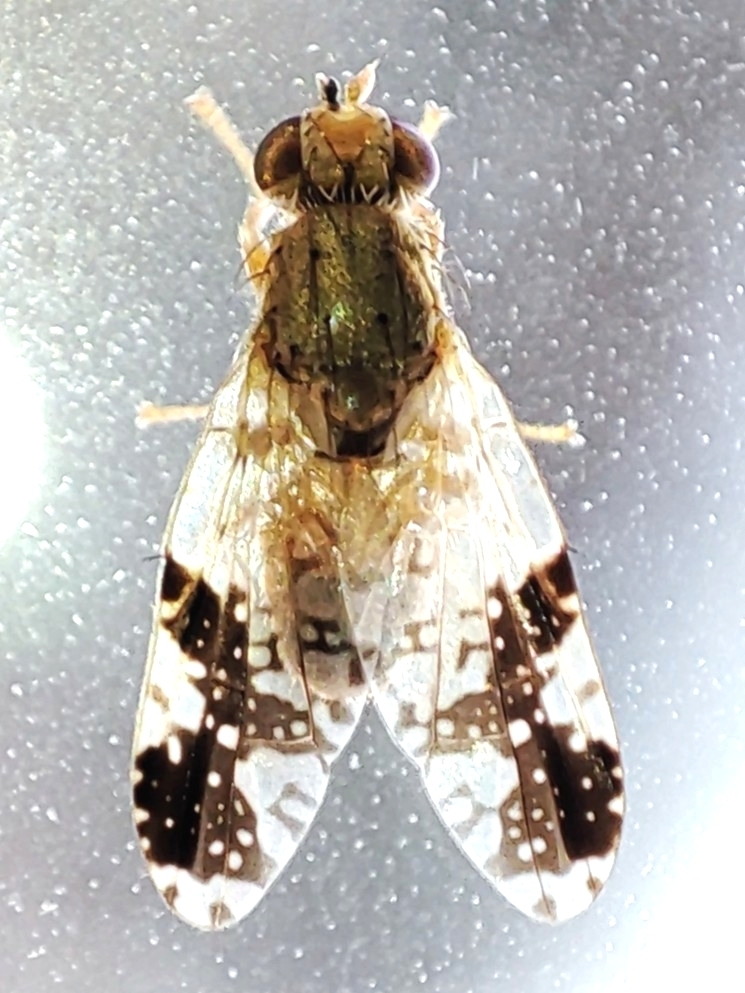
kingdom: Animalia
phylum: Arthropoda
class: Insecta
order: Diptera
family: Tephritidae
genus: Tephritis
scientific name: Tephritis bardanae
